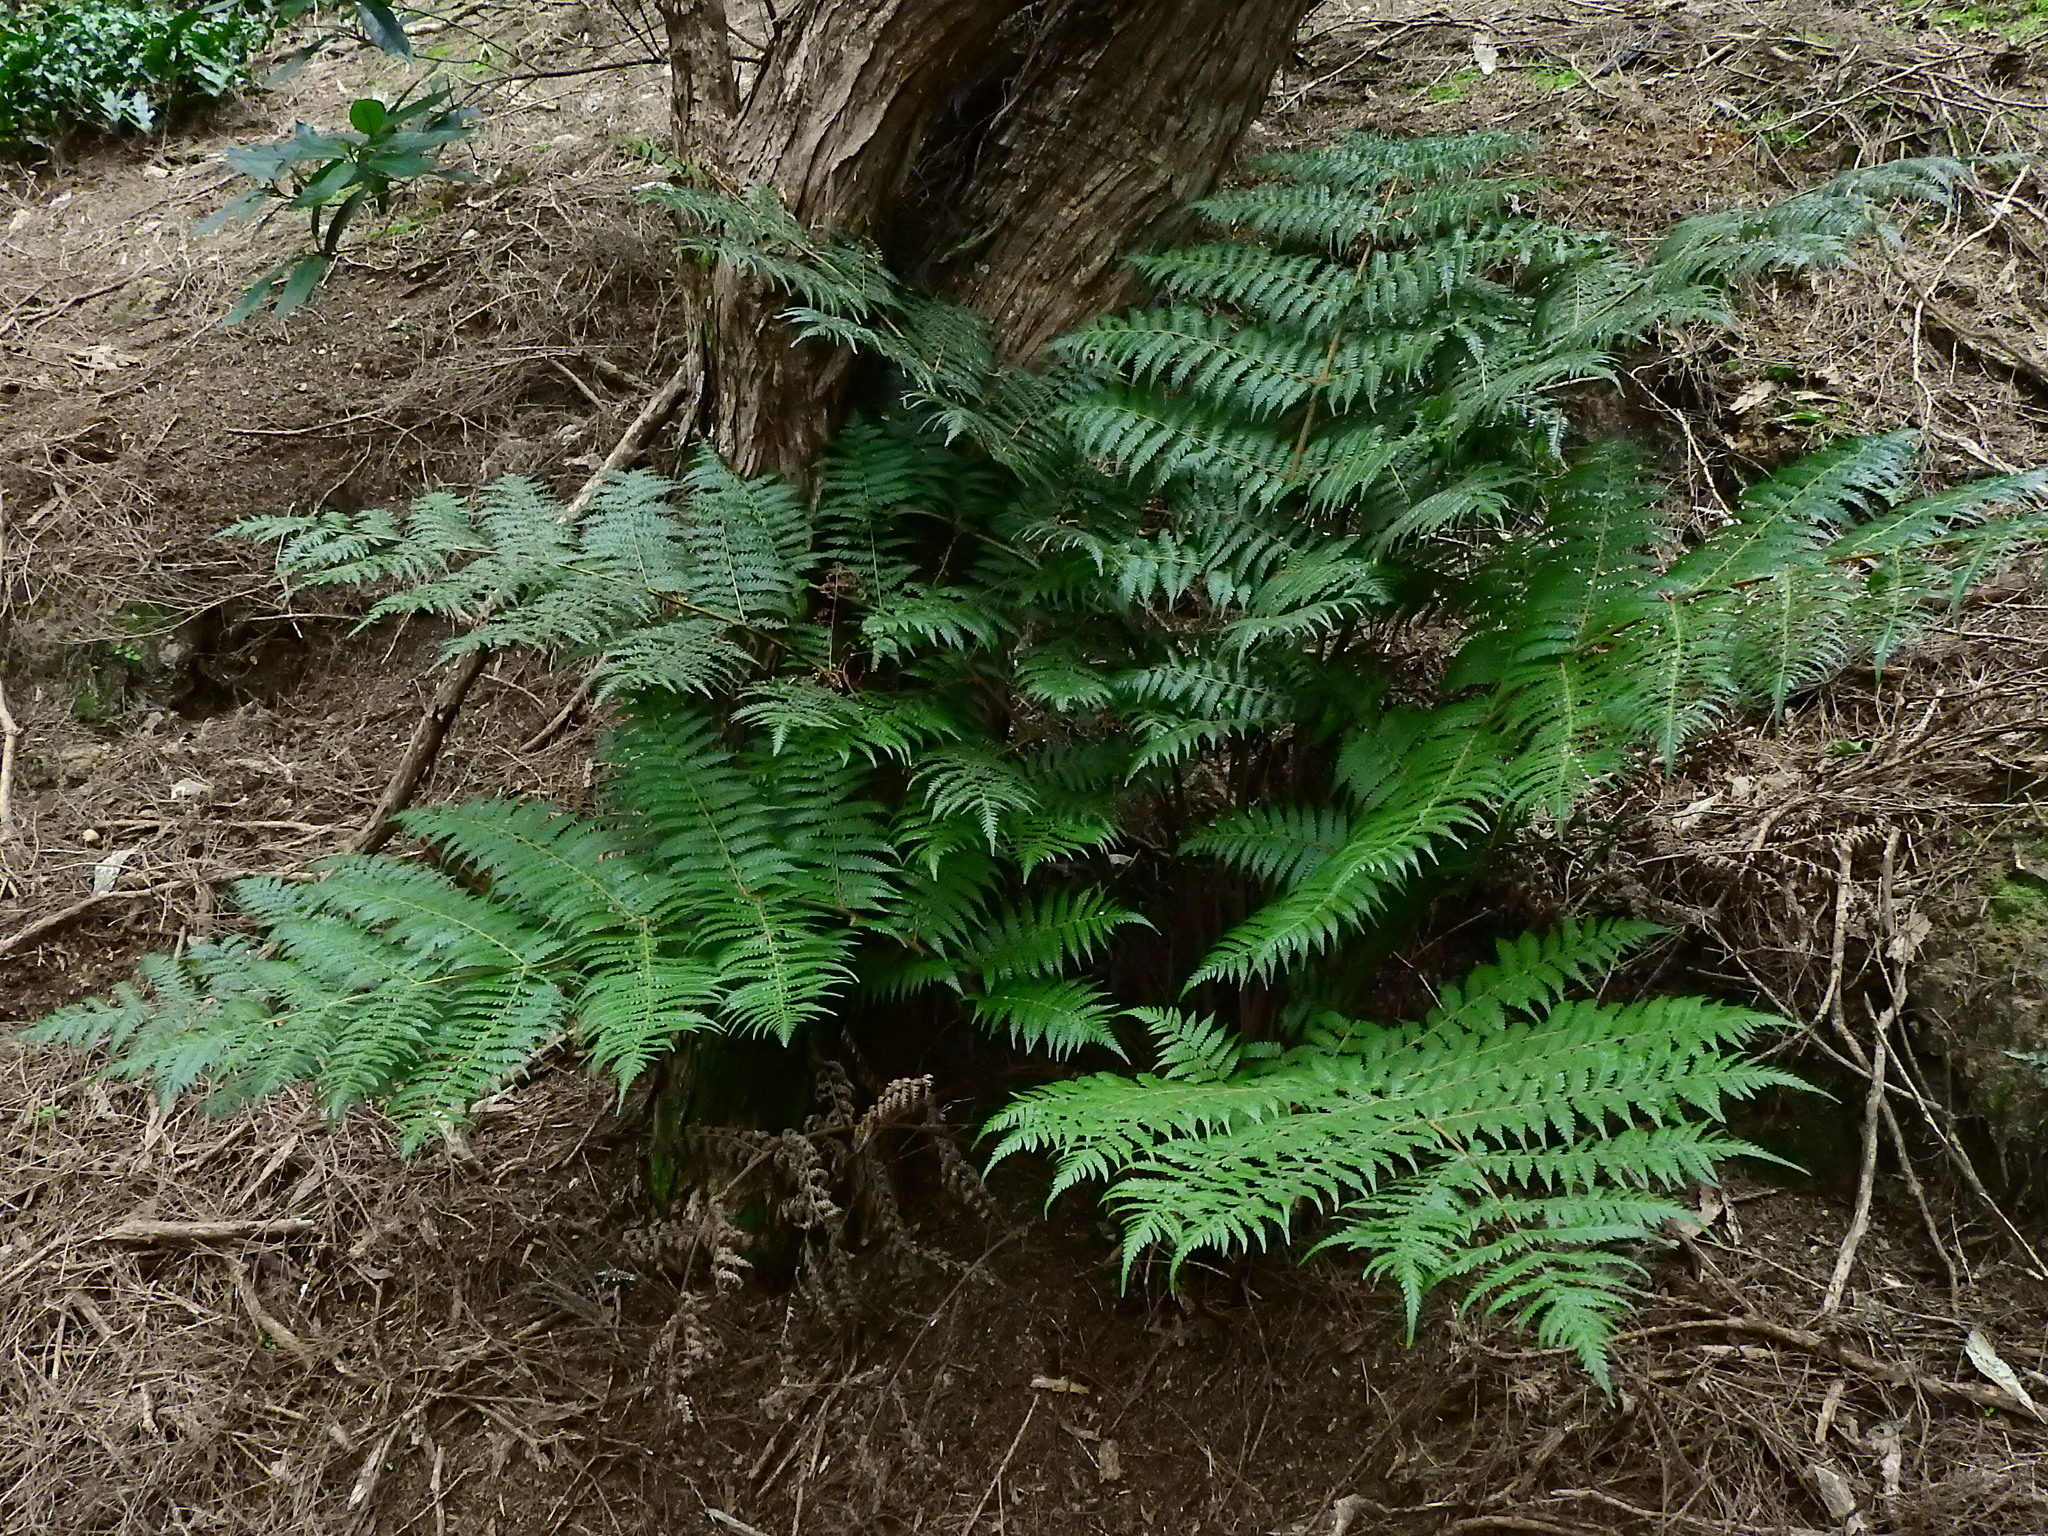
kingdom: Plantae
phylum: Tracheophyta
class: Polypodiopsida
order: Cyatheales
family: Cyatheaceae
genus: Alsophila
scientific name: Alsophila dealbata
